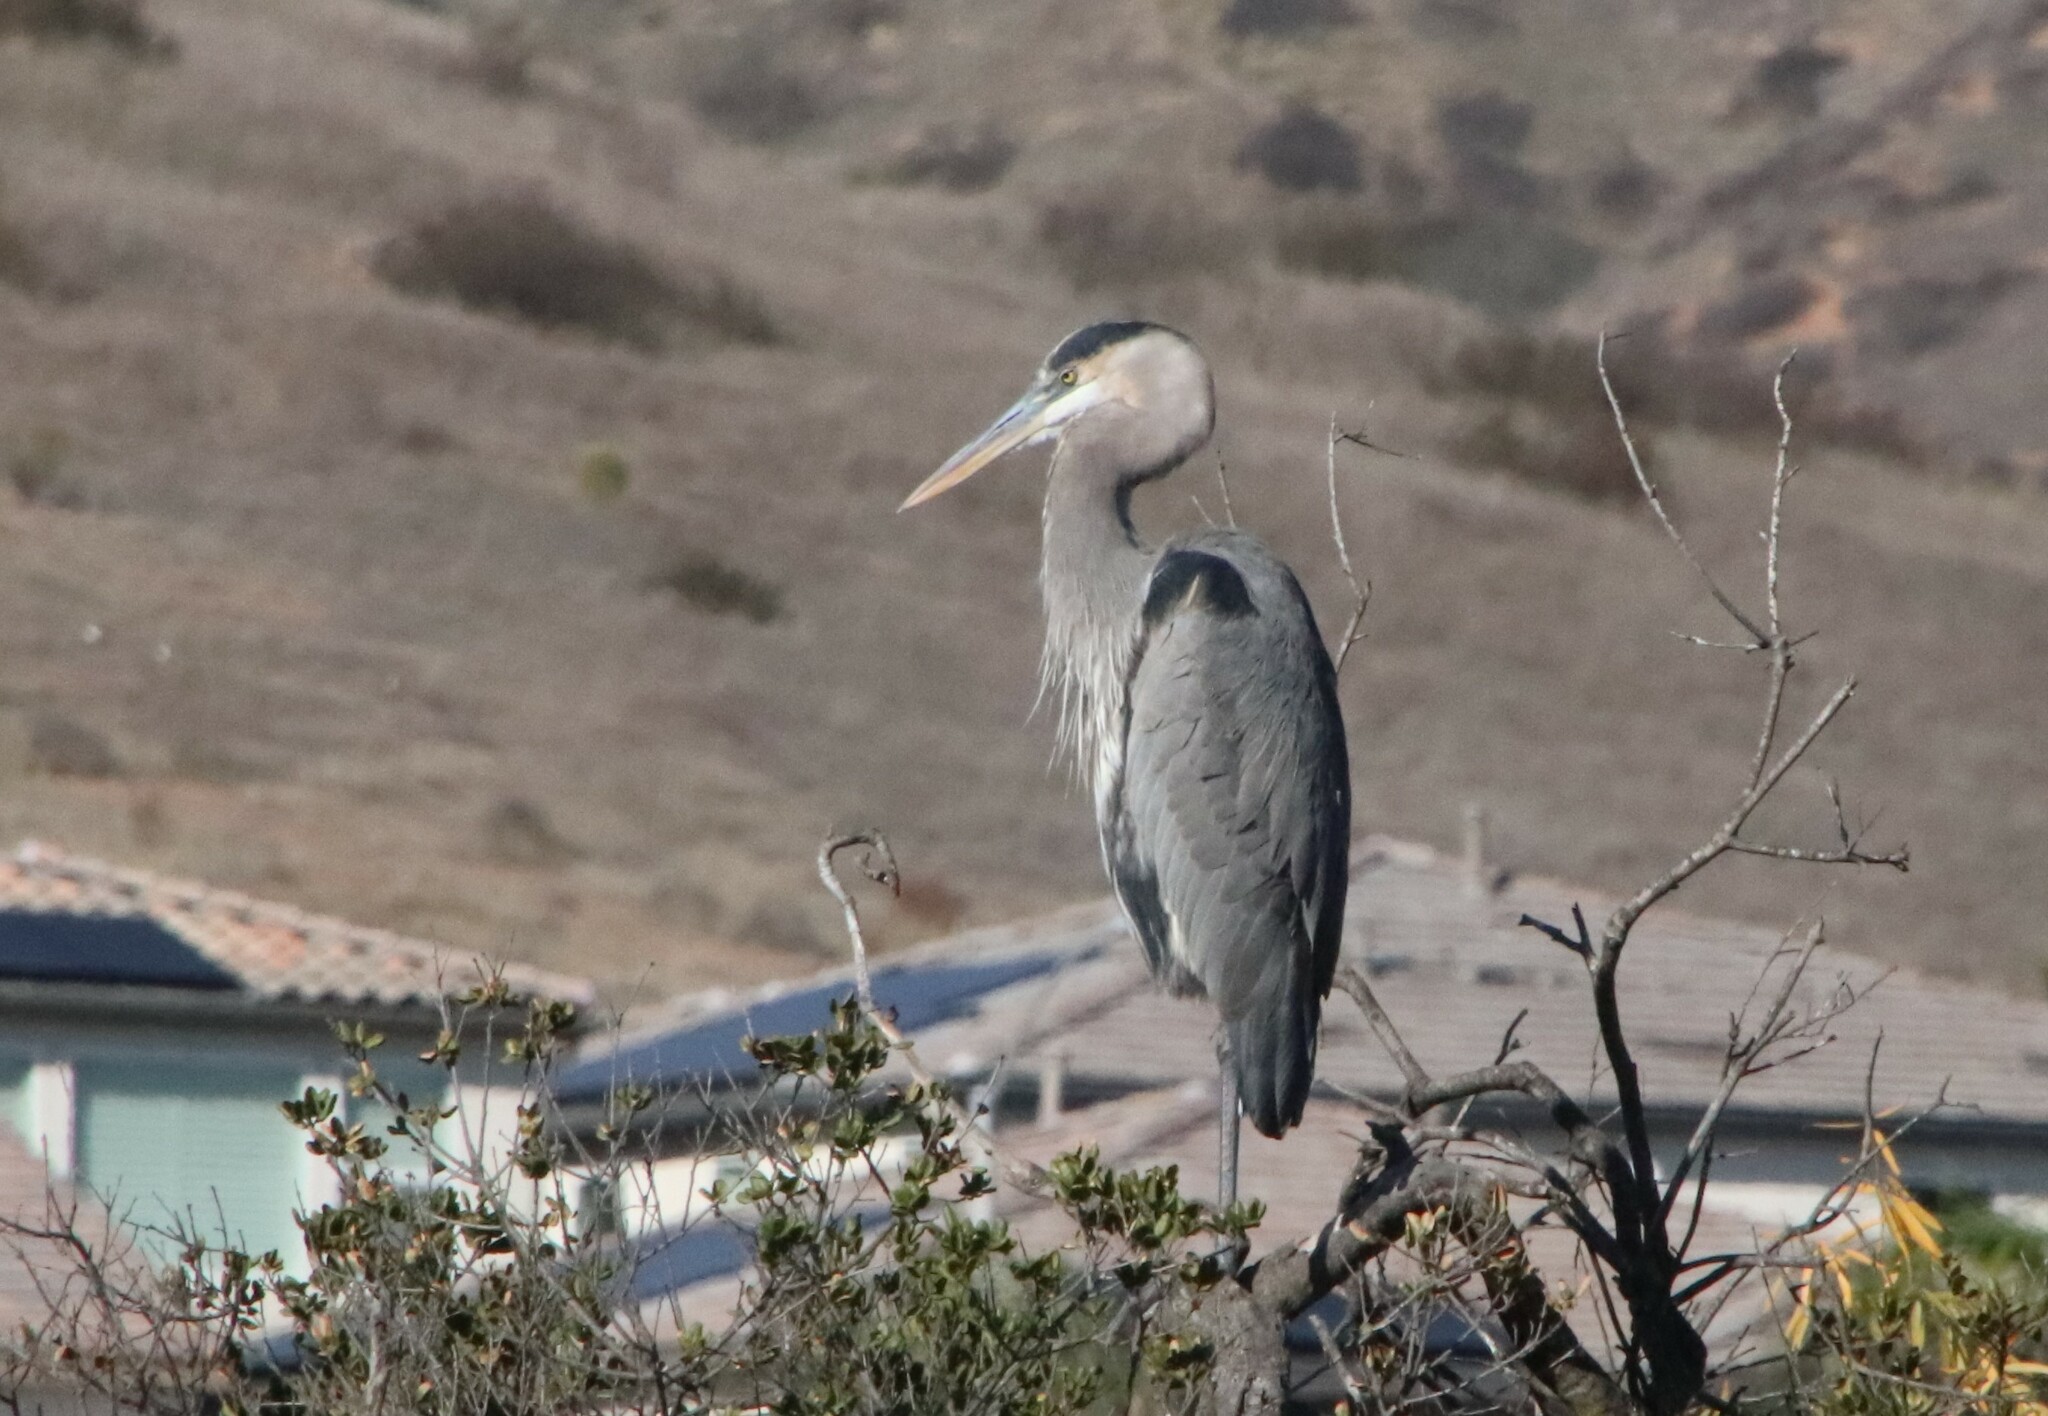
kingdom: Animalia
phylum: Chordata
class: Aves
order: Pelecaniformes
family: Ardeidae
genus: Ardea
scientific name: Ardea herodias
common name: Great blue heron
